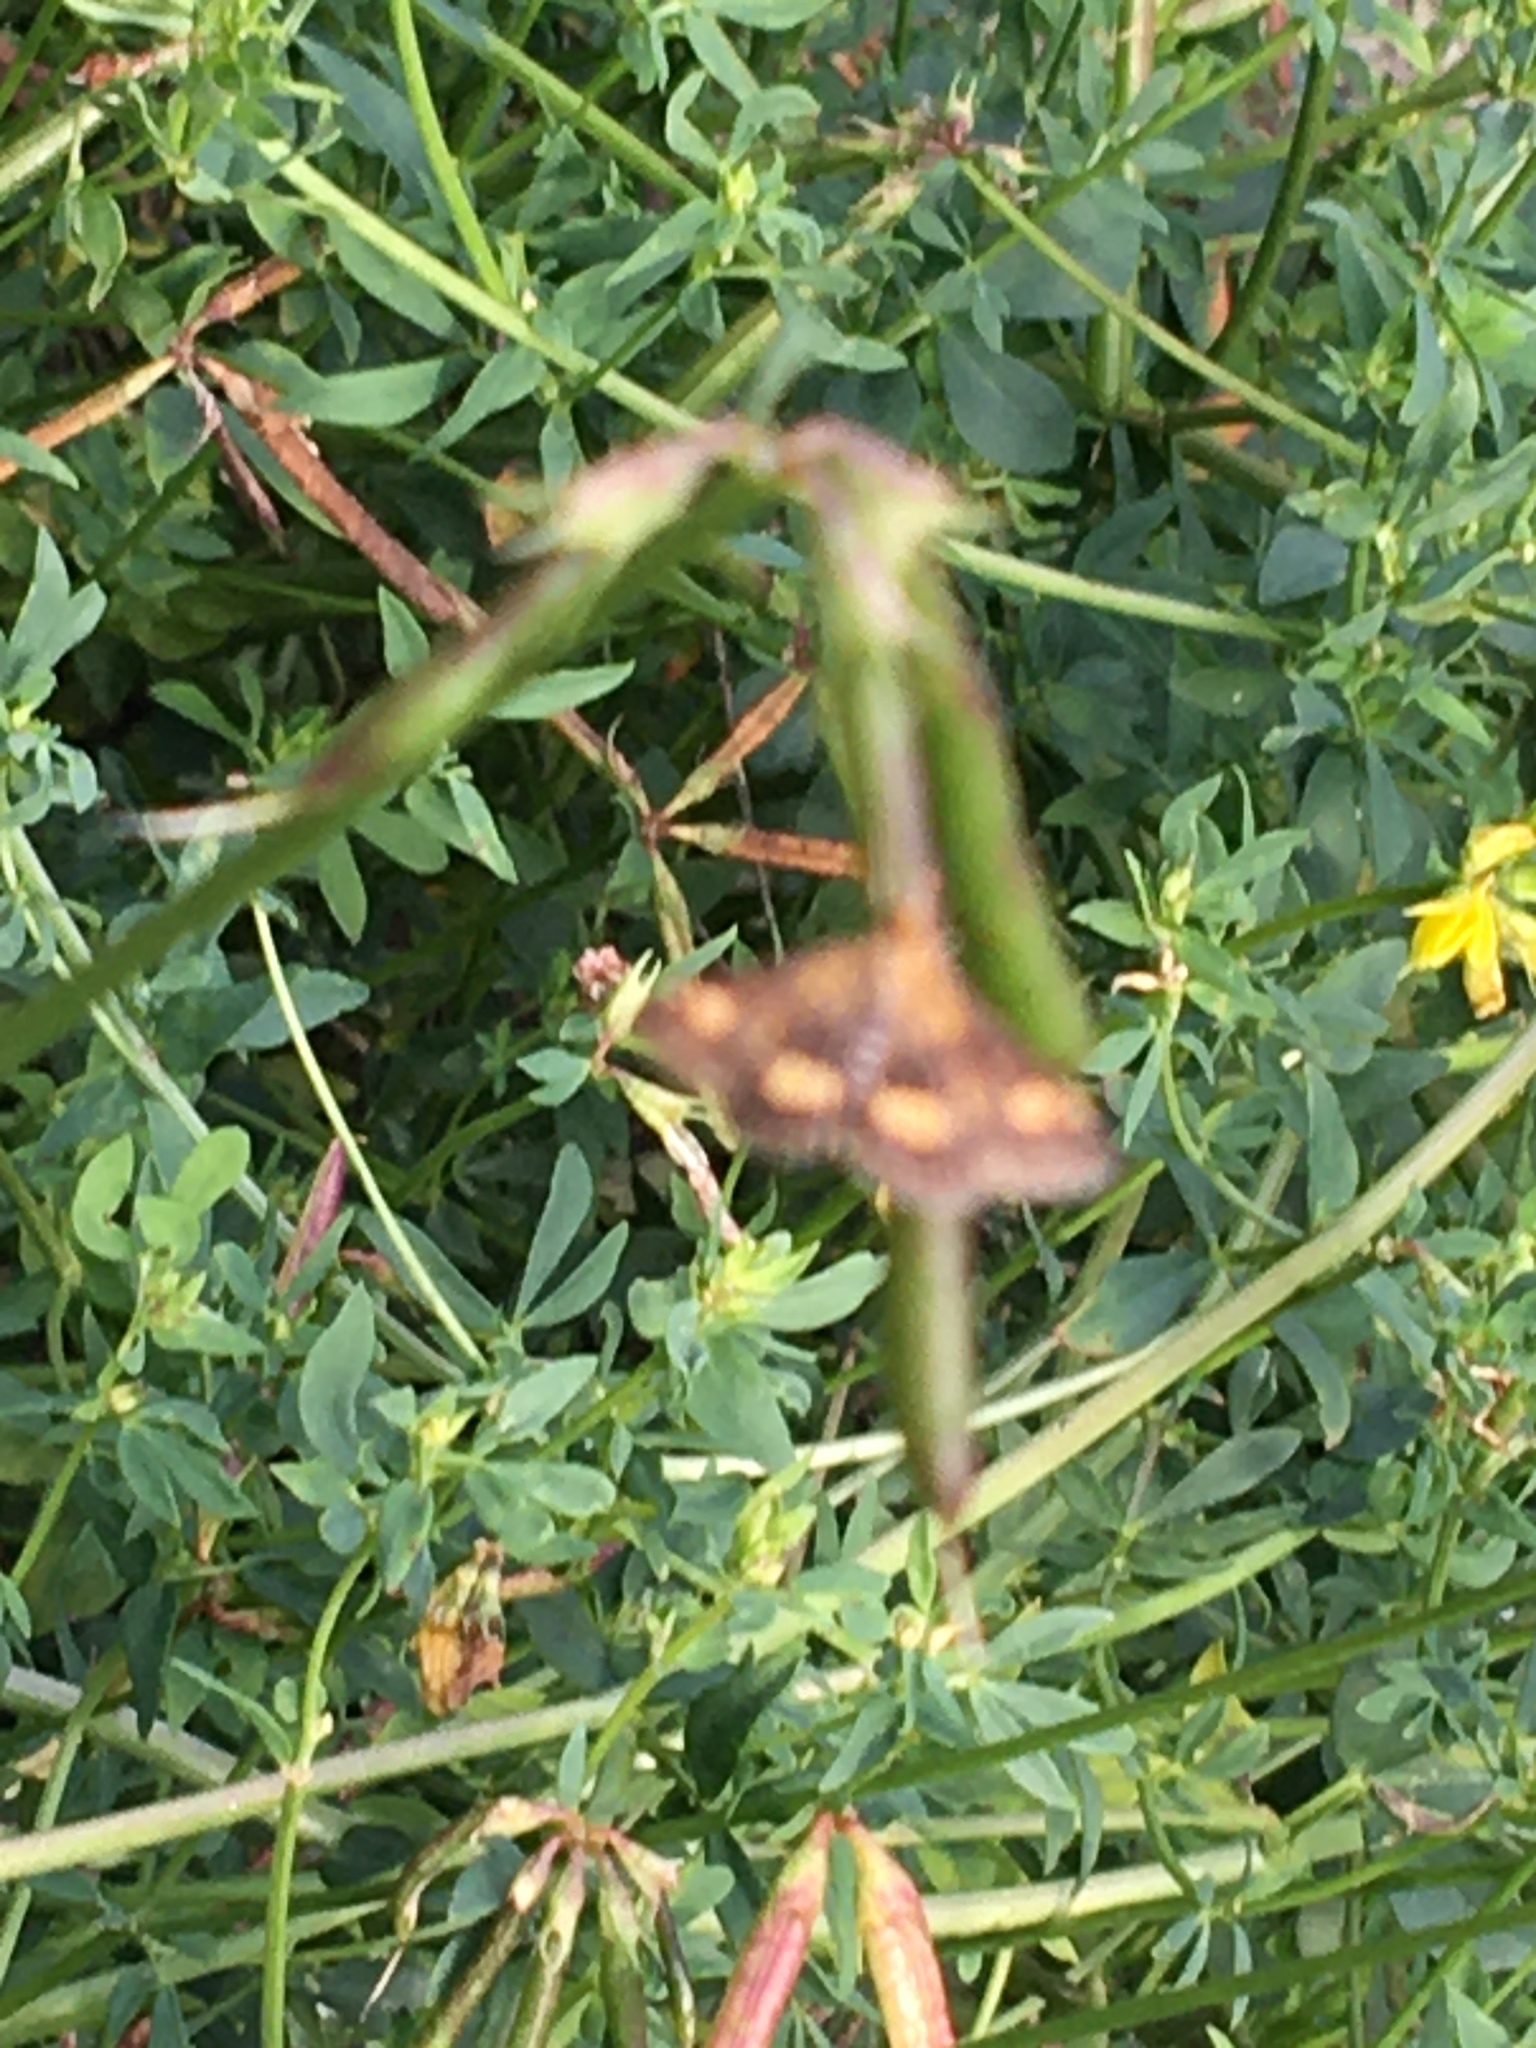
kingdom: Animalia
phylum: Arthropoda
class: Insecta
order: Lepidoptera
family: Crambidae
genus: Pyrausta
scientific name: Pyrausta aurata
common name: Small purple & gold
